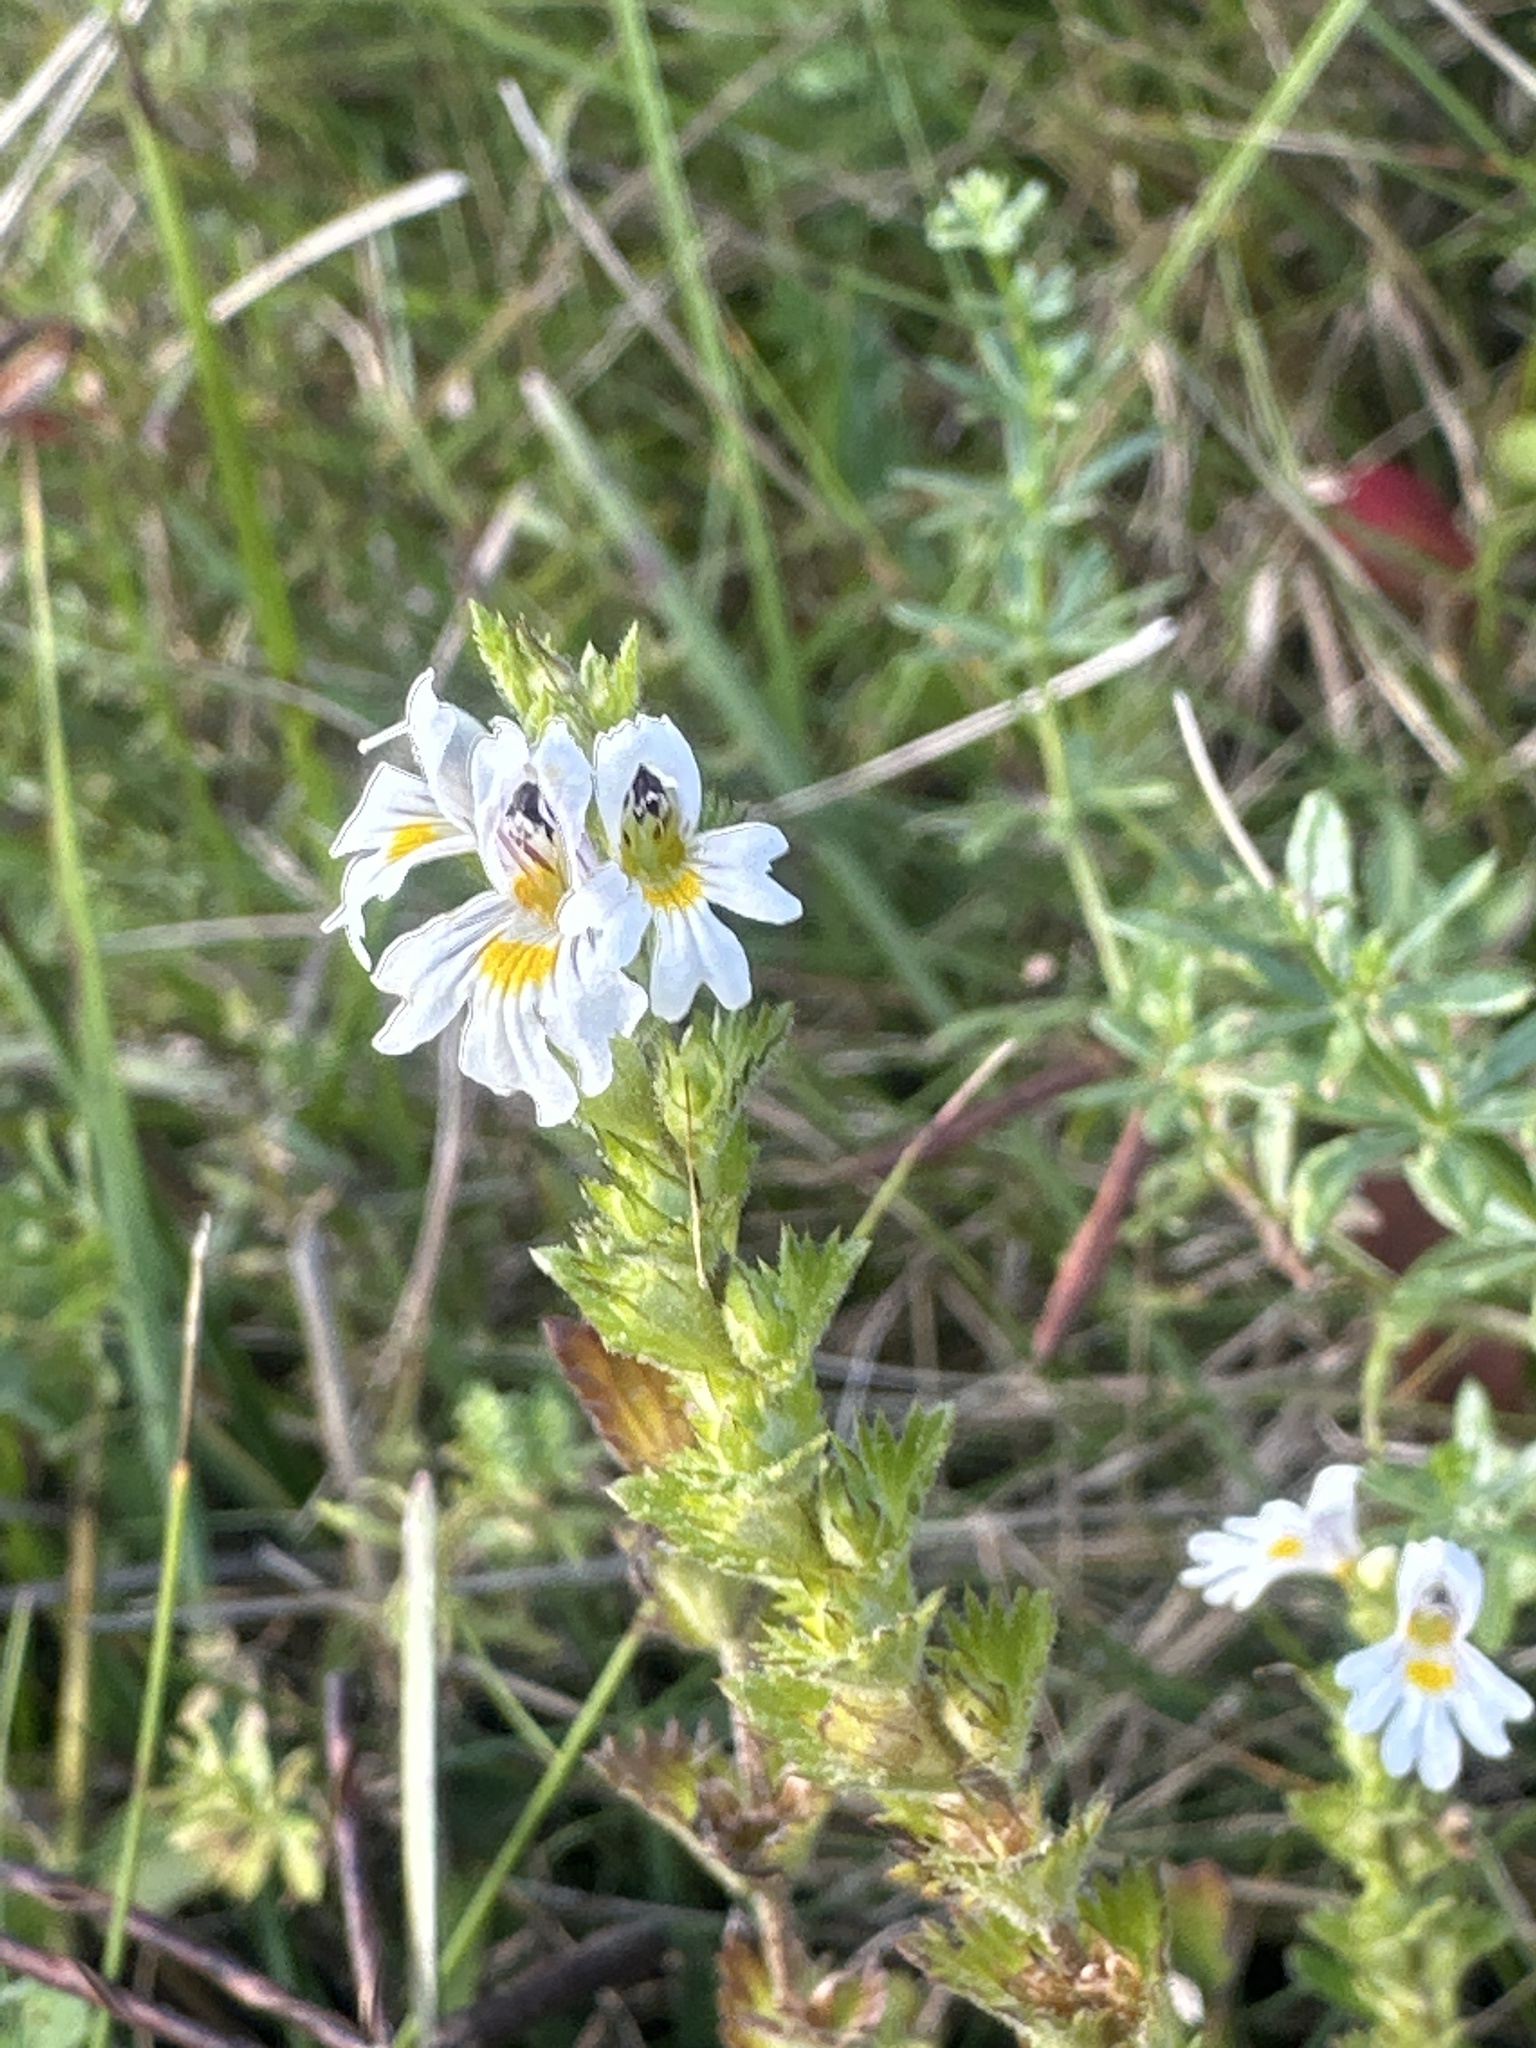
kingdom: Plantae
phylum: Tracheophyta
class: Magnoliopsida
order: Lamiales
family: Orobanchaceae
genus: Euphrasia
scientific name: Euphrasia officinalis
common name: Eyebright
